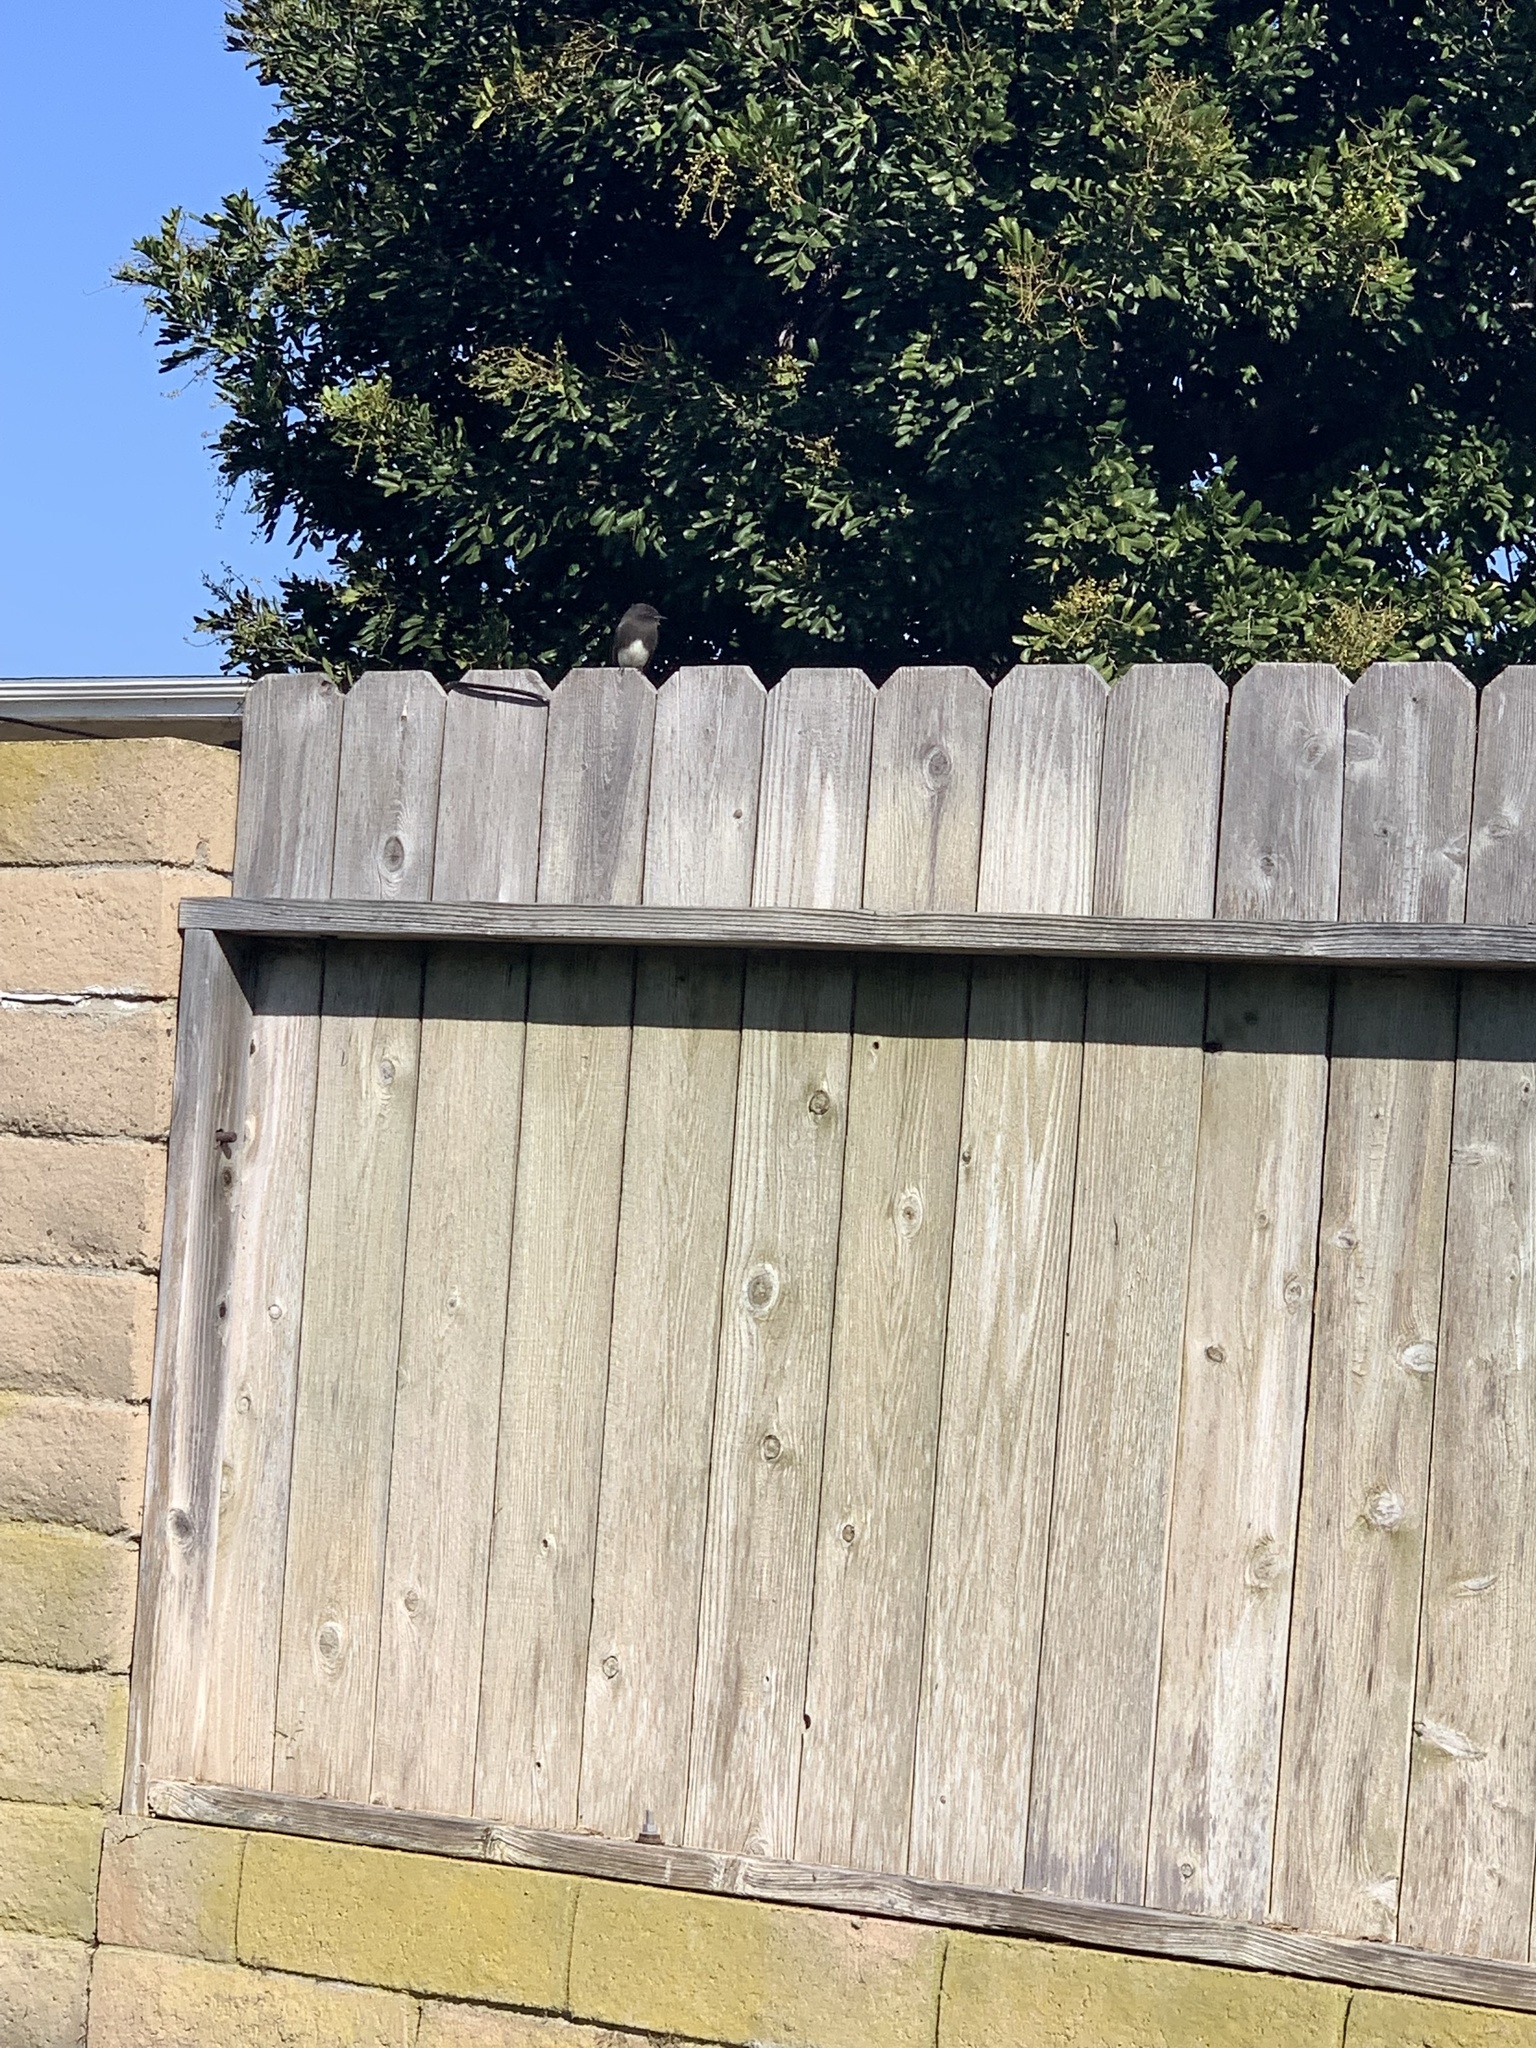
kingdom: Animalia
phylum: Chordata
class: Aves
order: Passeriformes
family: Tyrannidae
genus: Sayornis
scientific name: Sayornis nigricans
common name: Black phoebe
